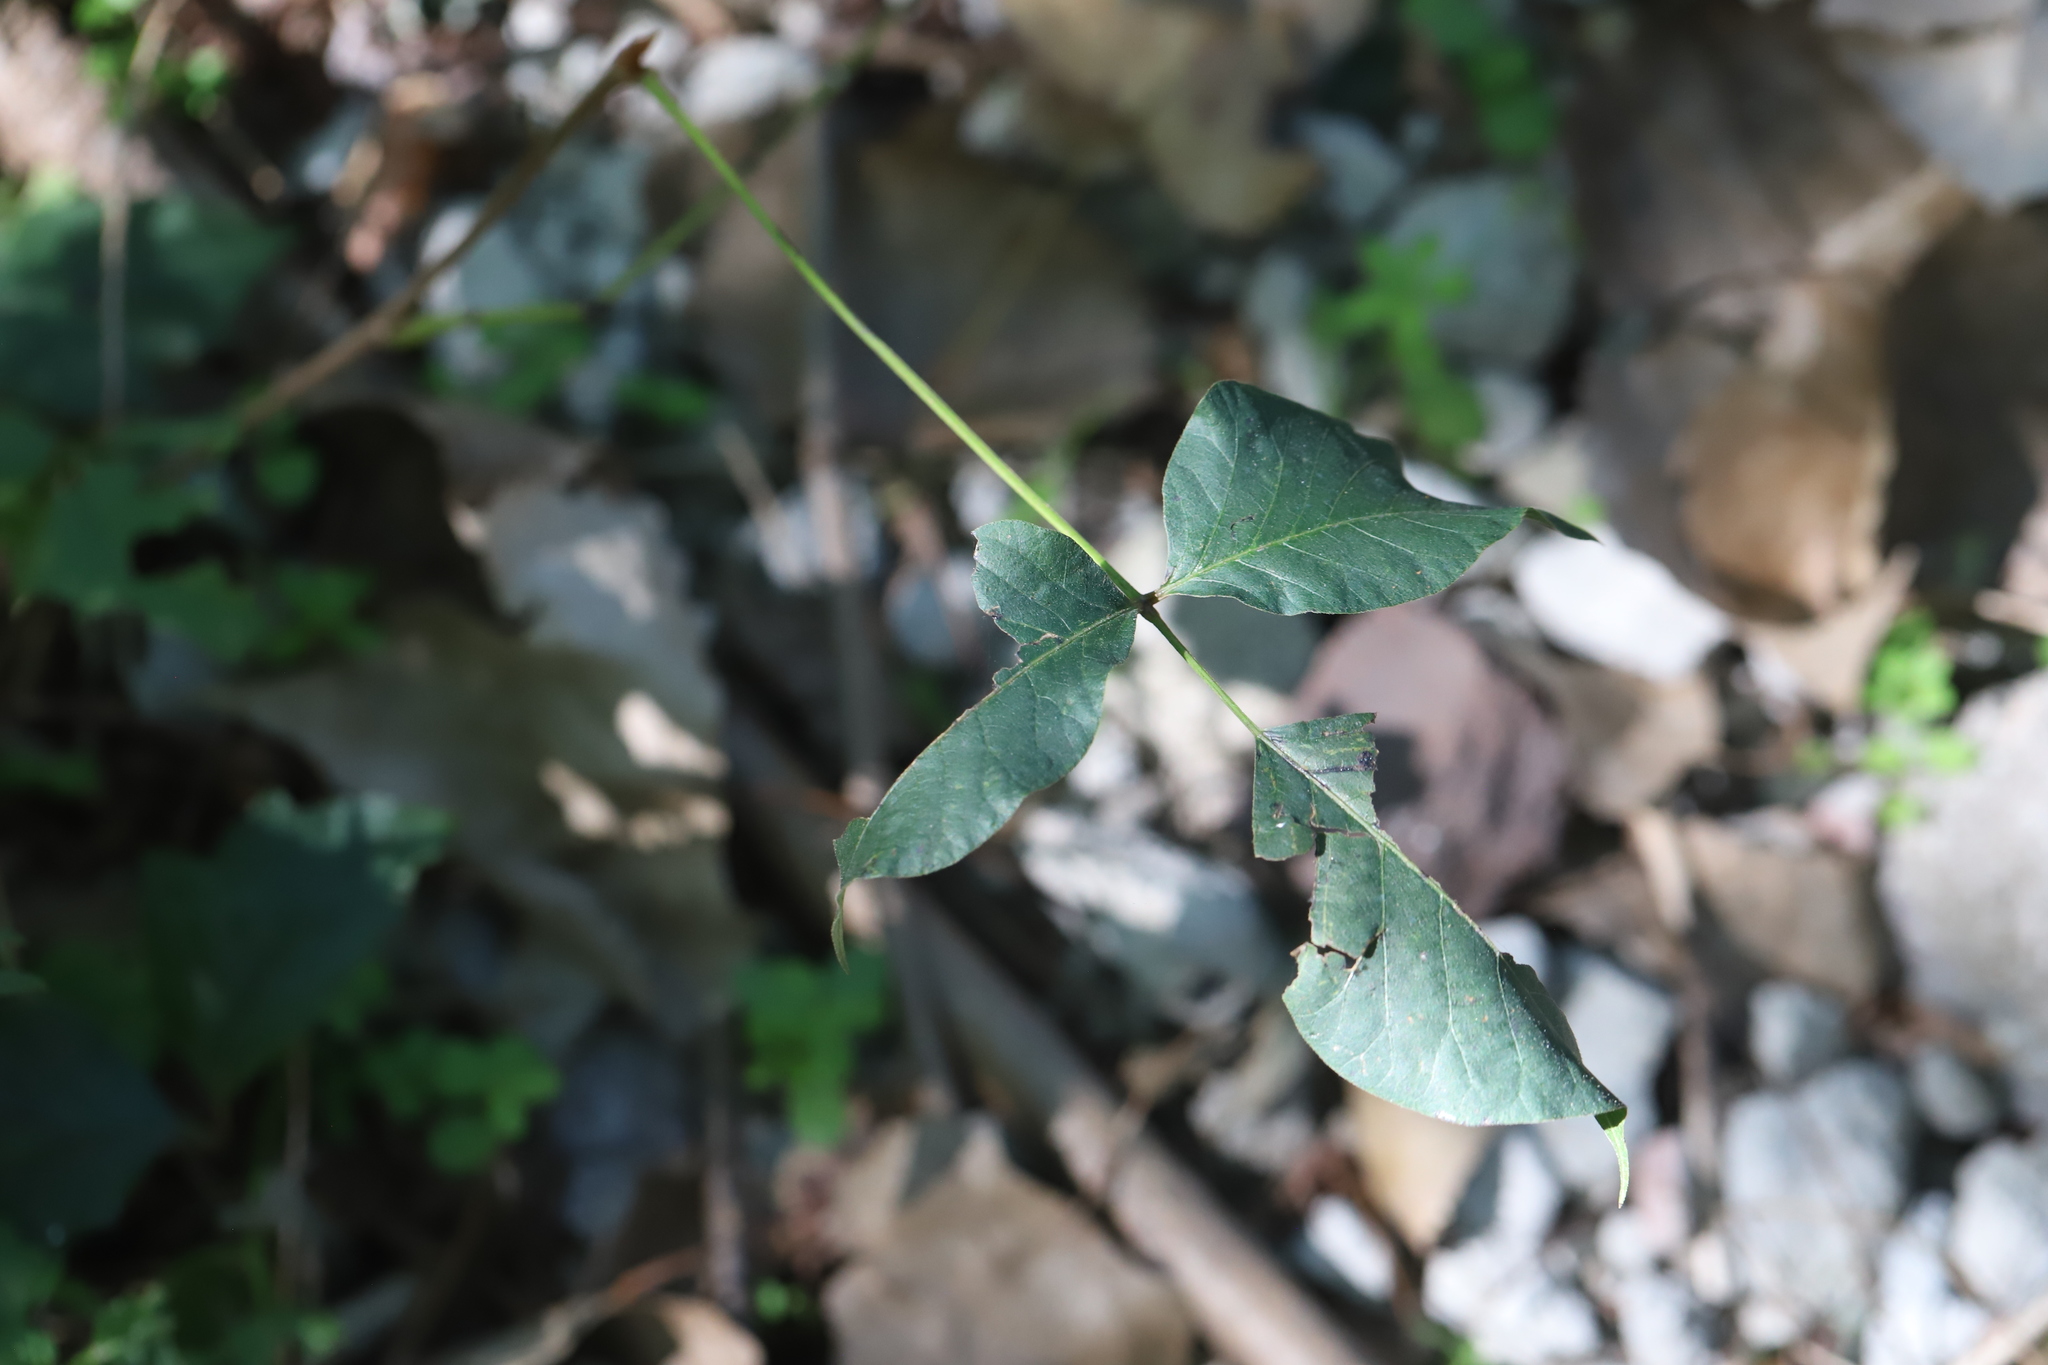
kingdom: Plantae
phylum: Tracheophyta
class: Magnoliopsida
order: Sapindales
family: Anacardiaceae
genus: Toxicodendron
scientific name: Toxicodendron radicans
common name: Poison ivy
